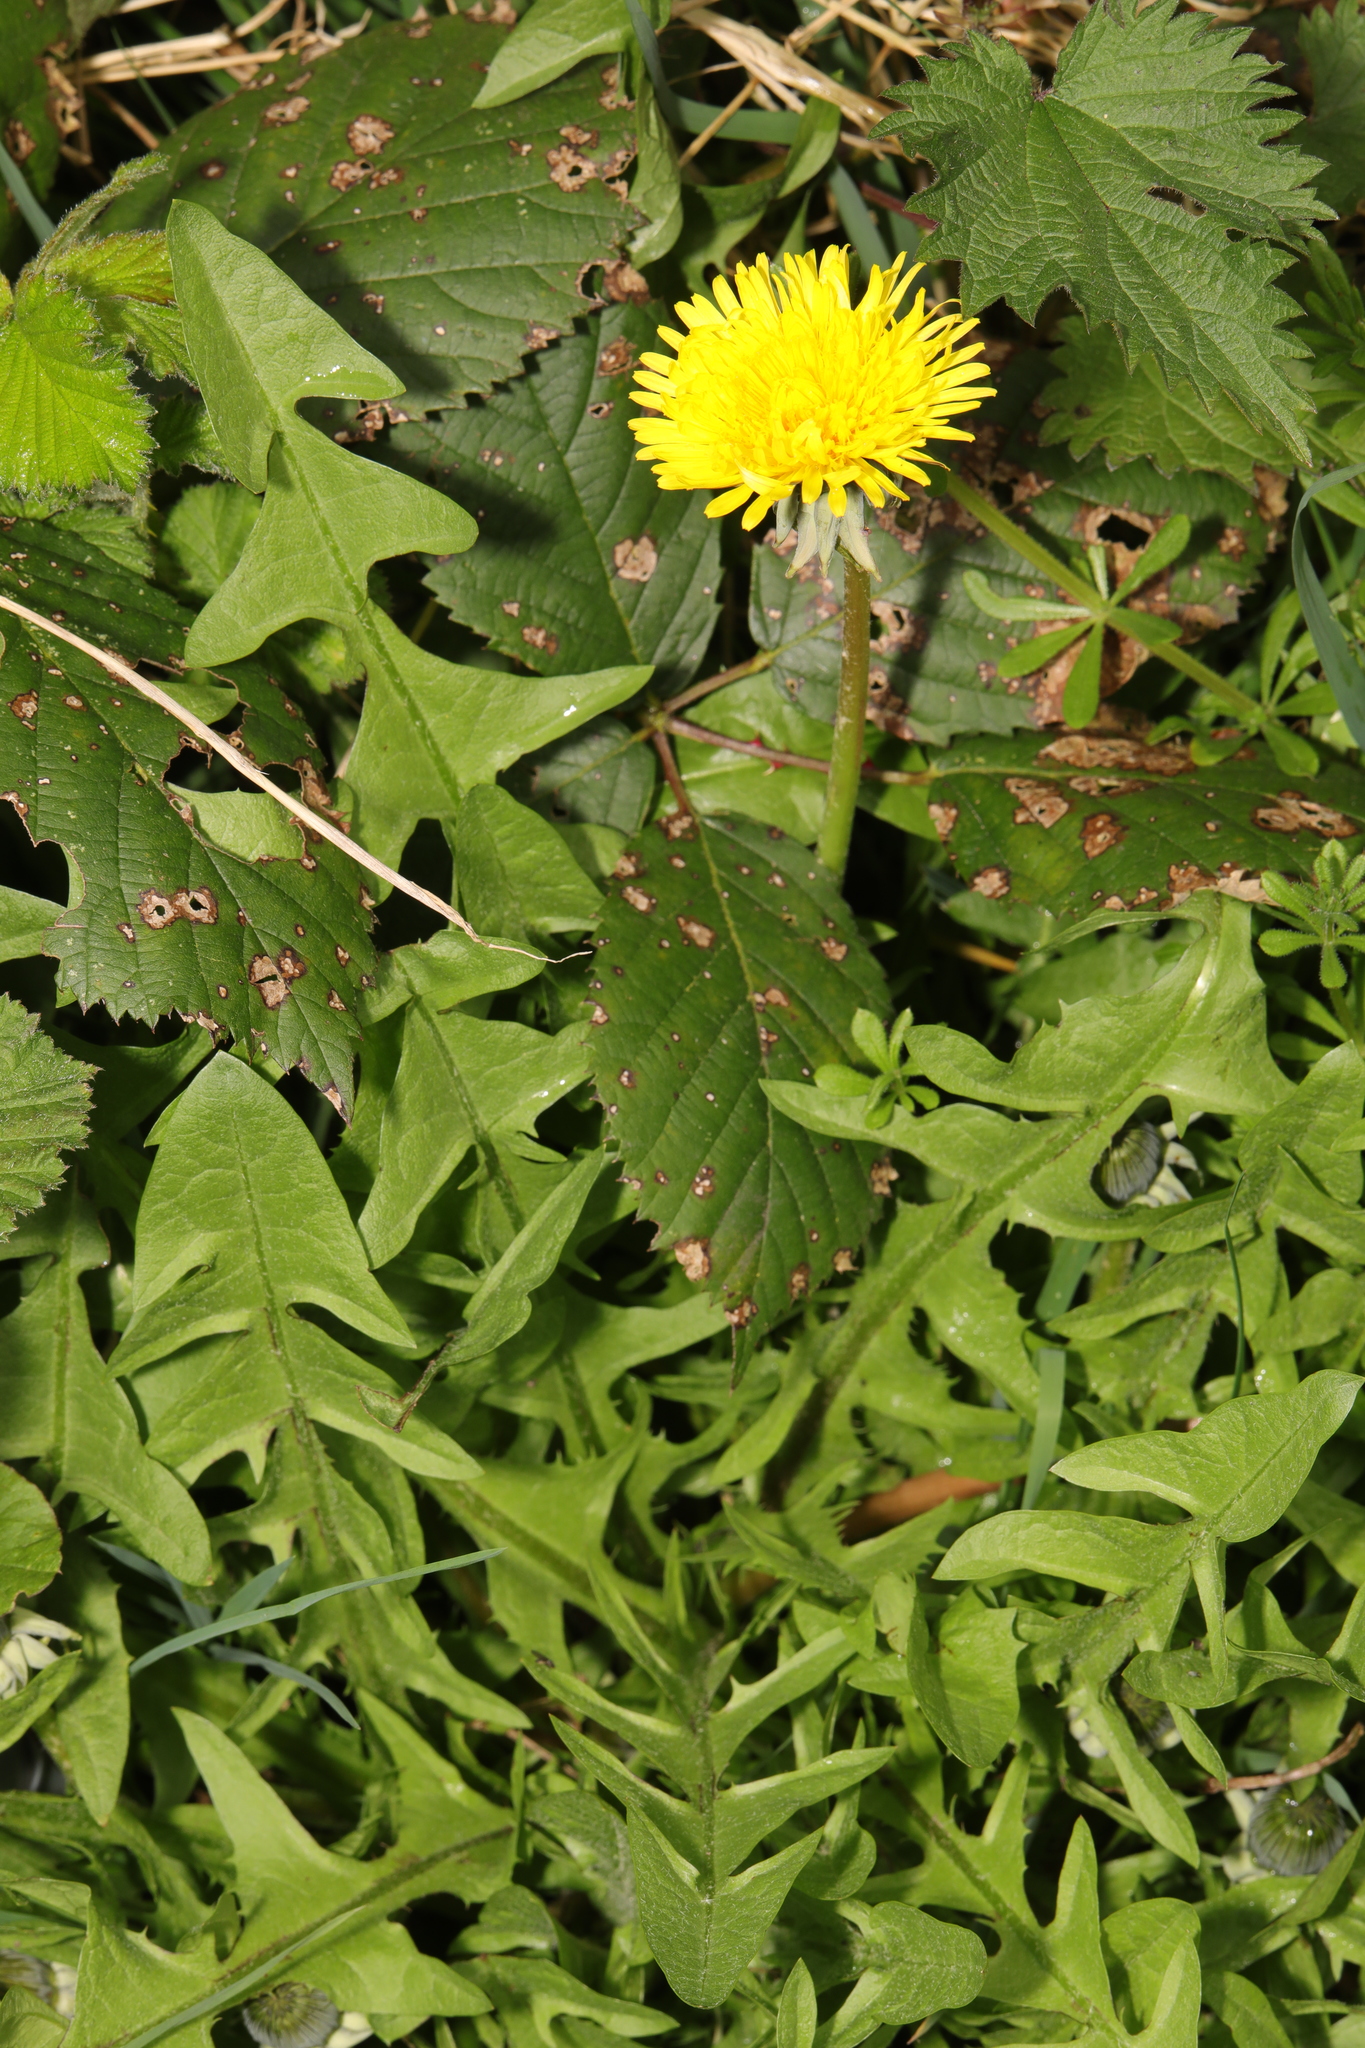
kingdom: Plantae
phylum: Tracheophyta
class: Magnoliopsida
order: Asterales
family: Asteraceae
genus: Taraxacum
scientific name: Taraxacum officinale
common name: Common dandelion
